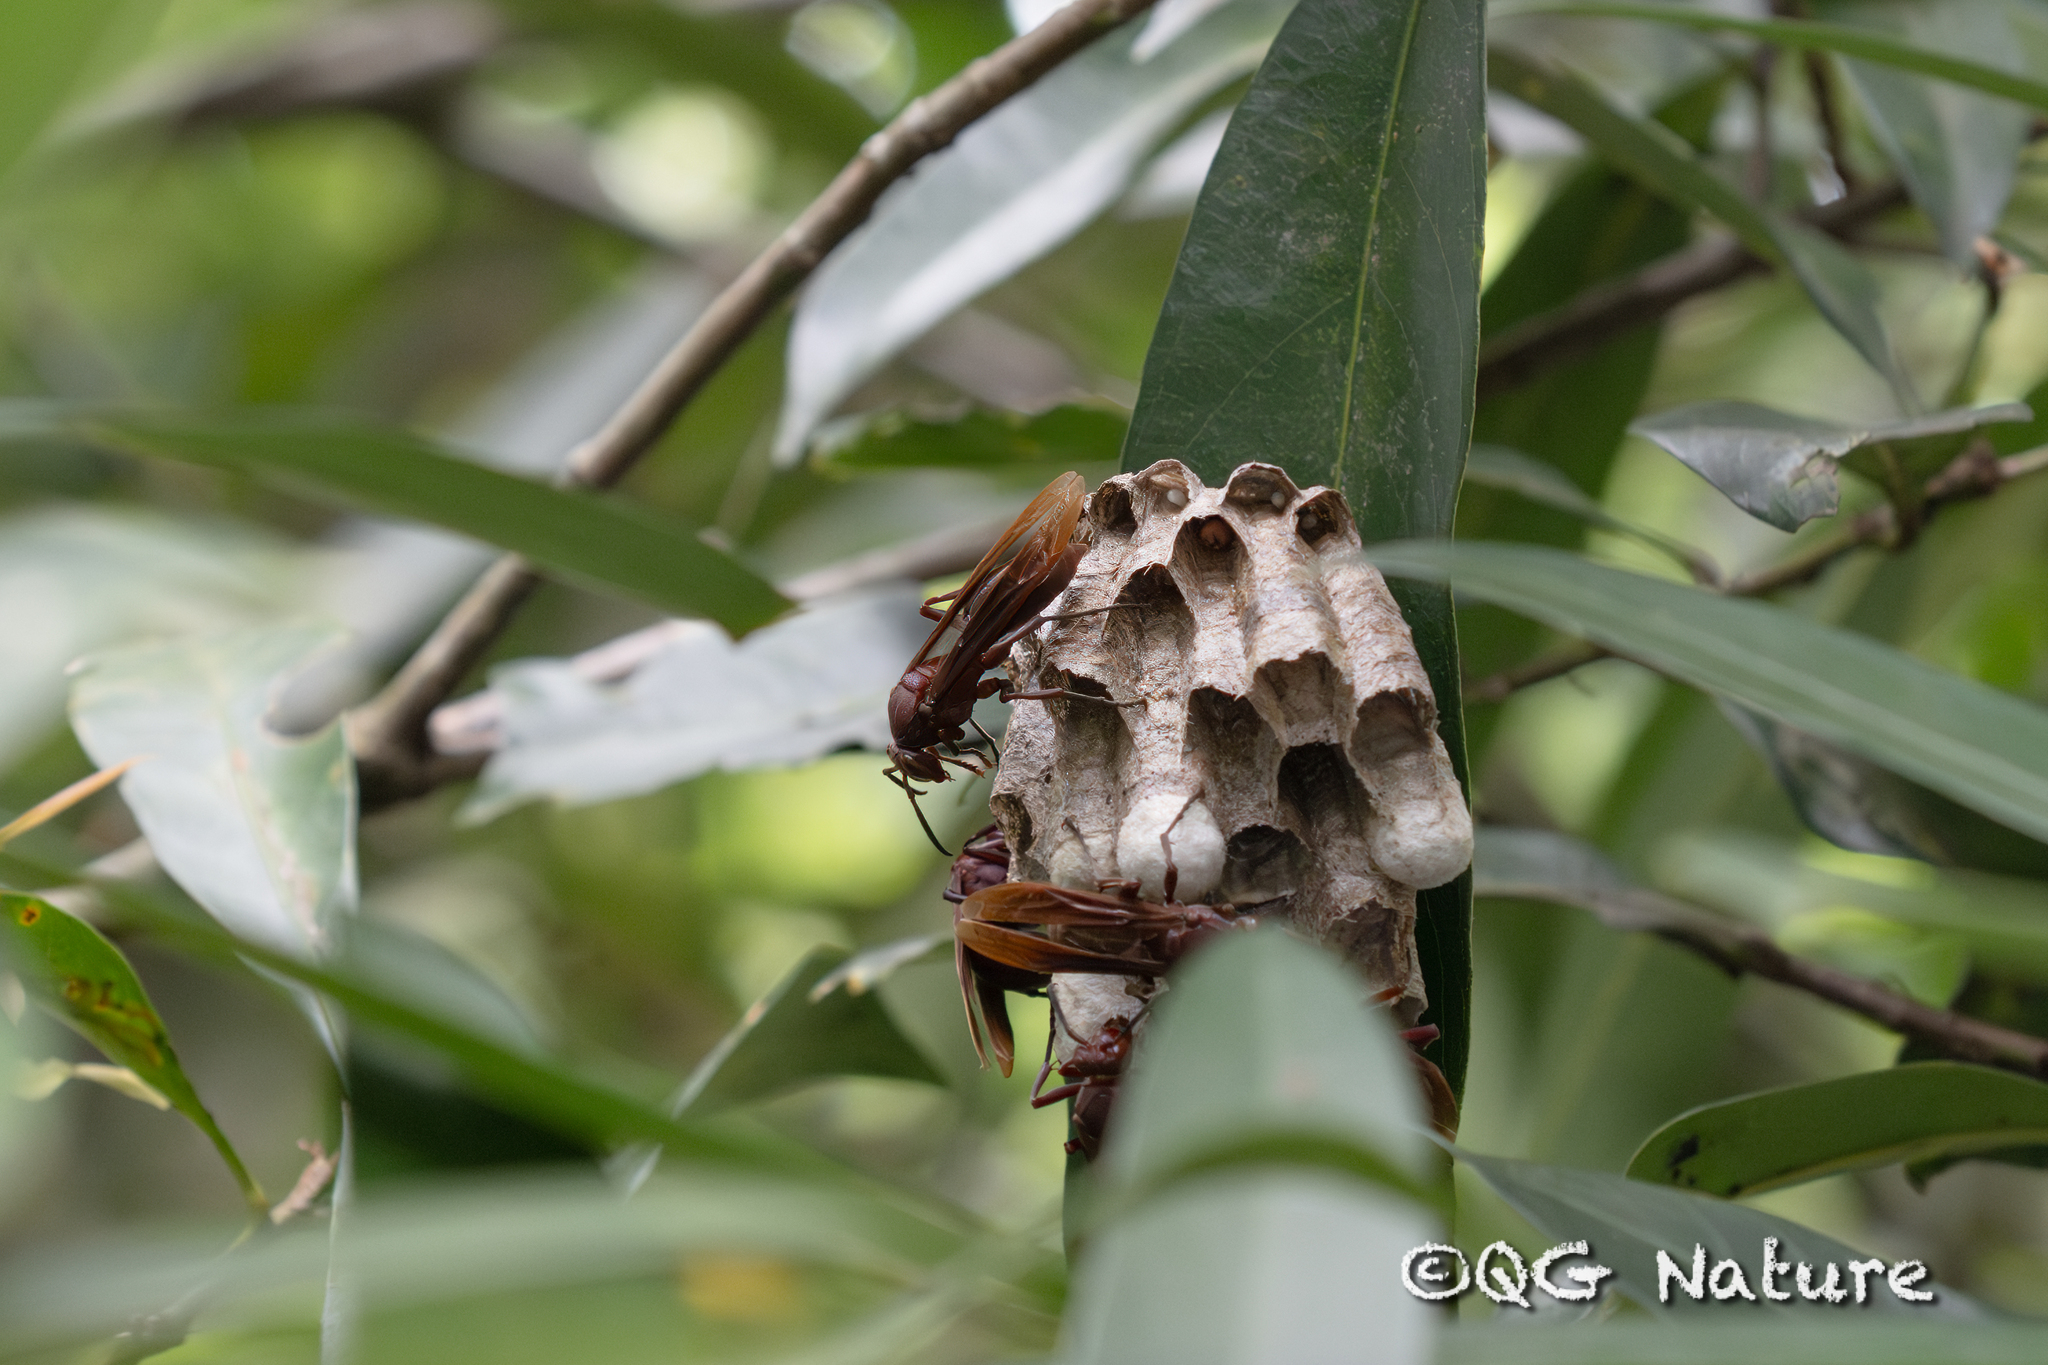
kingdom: Animalia
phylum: Arthropoda
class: Insecta
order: Hymenoptera
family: Eumenidae
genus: Polistes
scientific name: Polistes strigosus
